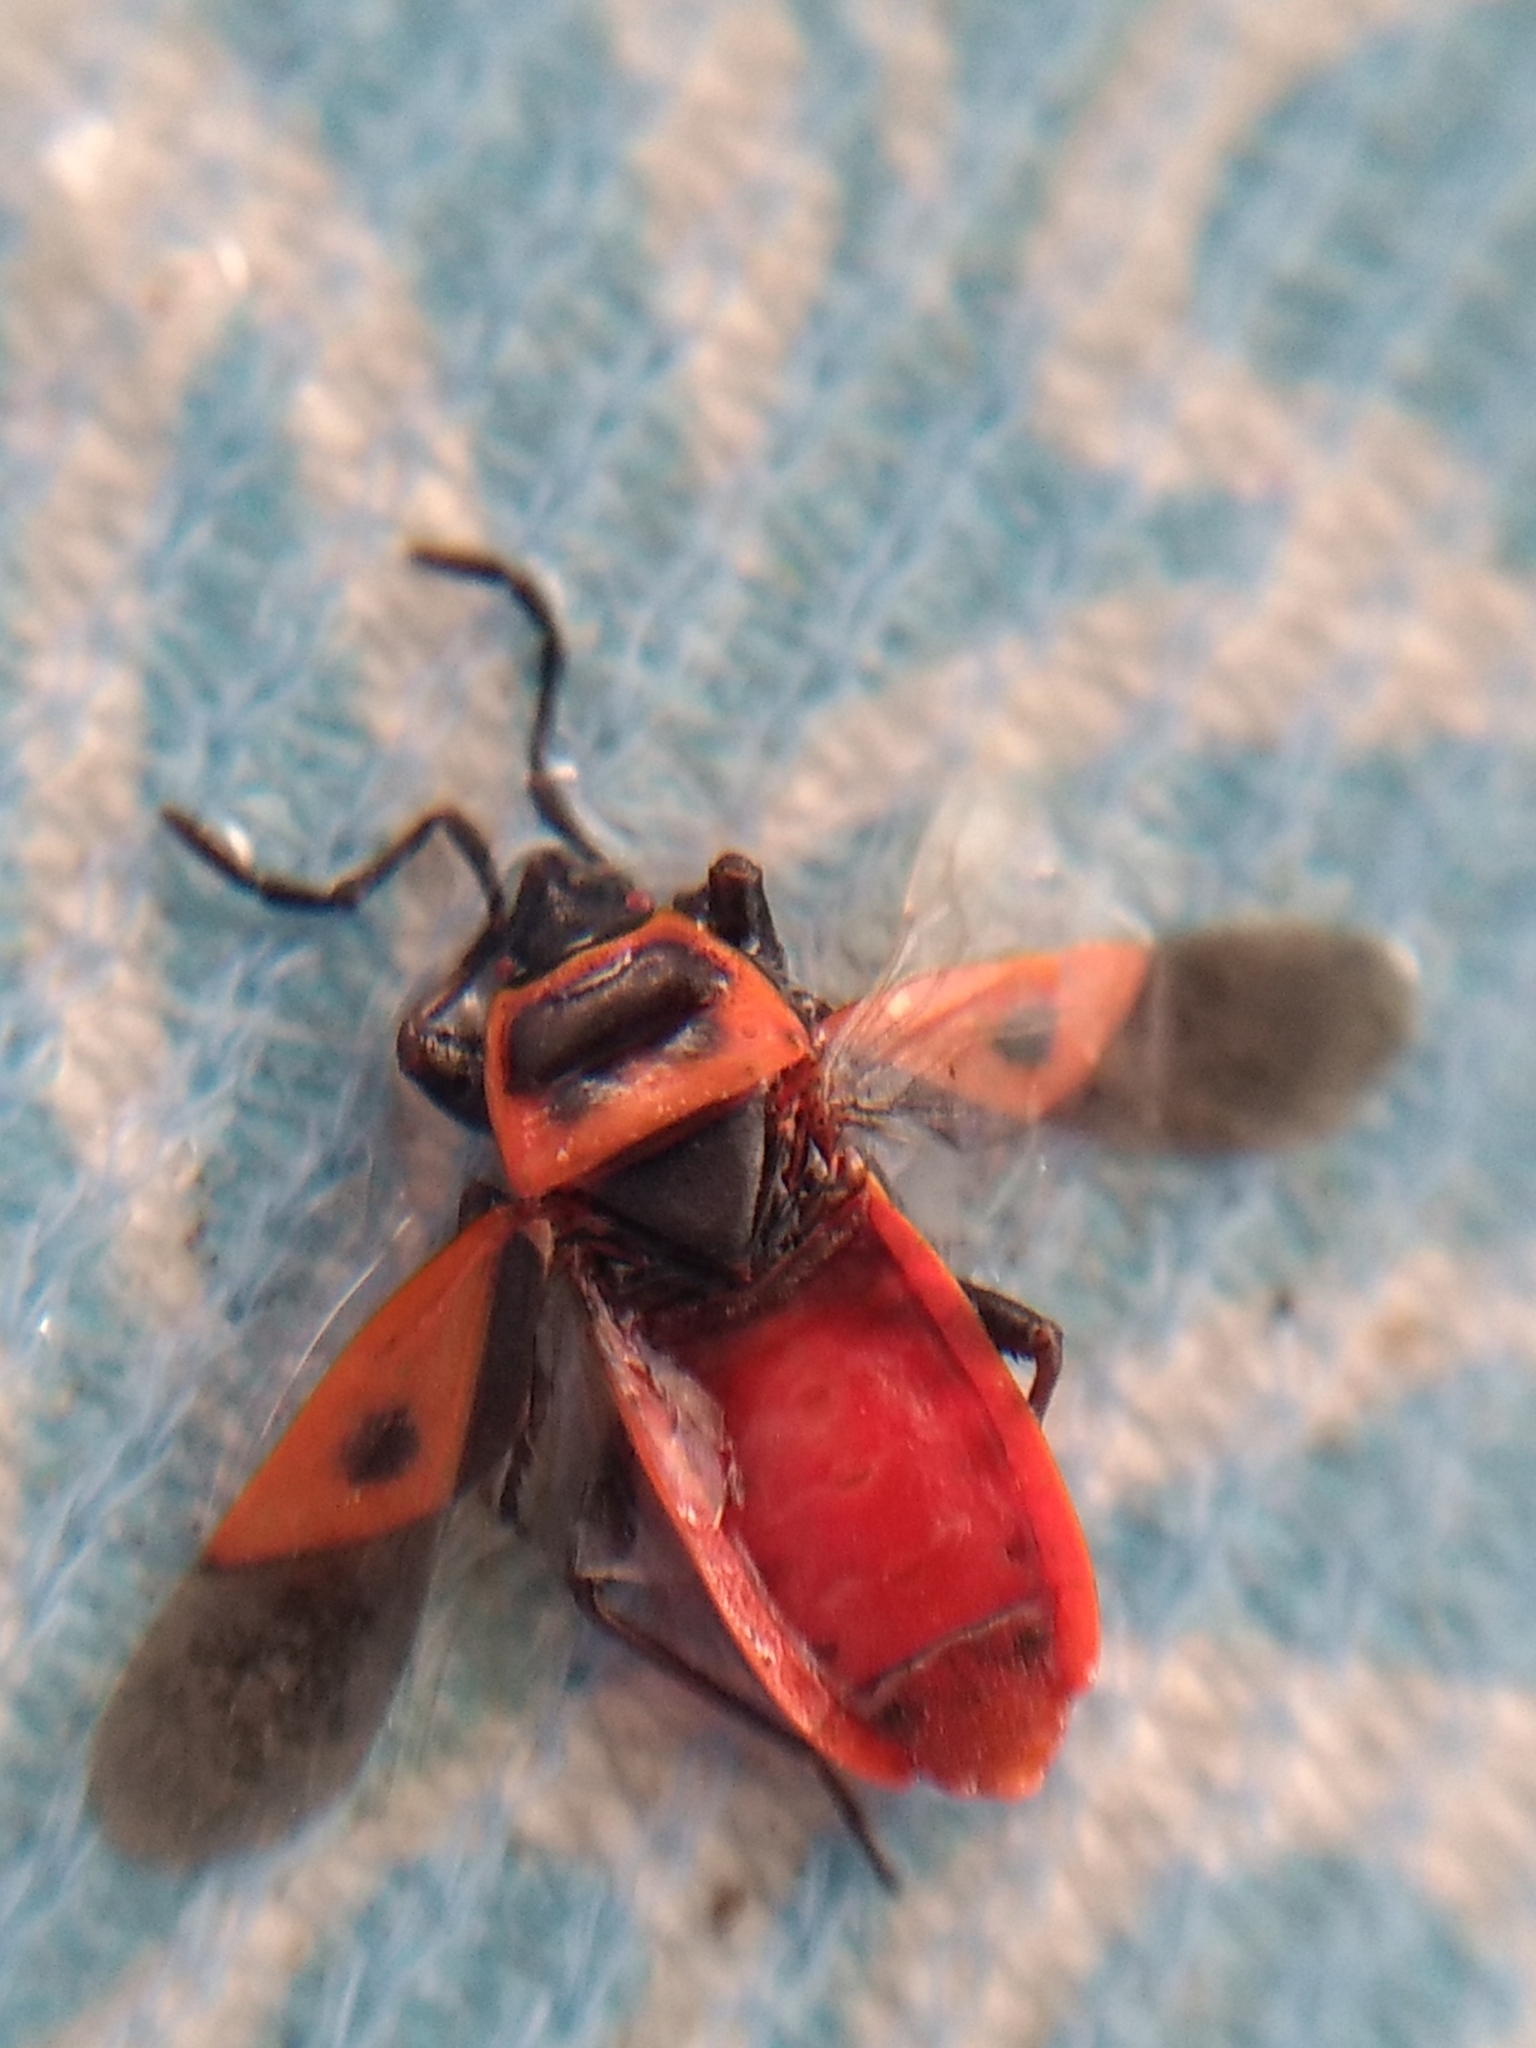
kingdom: Animalia
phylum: Arthropoda
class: Insecta
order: Hemiptera
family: Pyrrhocoridae
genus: Scantius
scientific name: Scantius aegyptius
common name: Red bug
